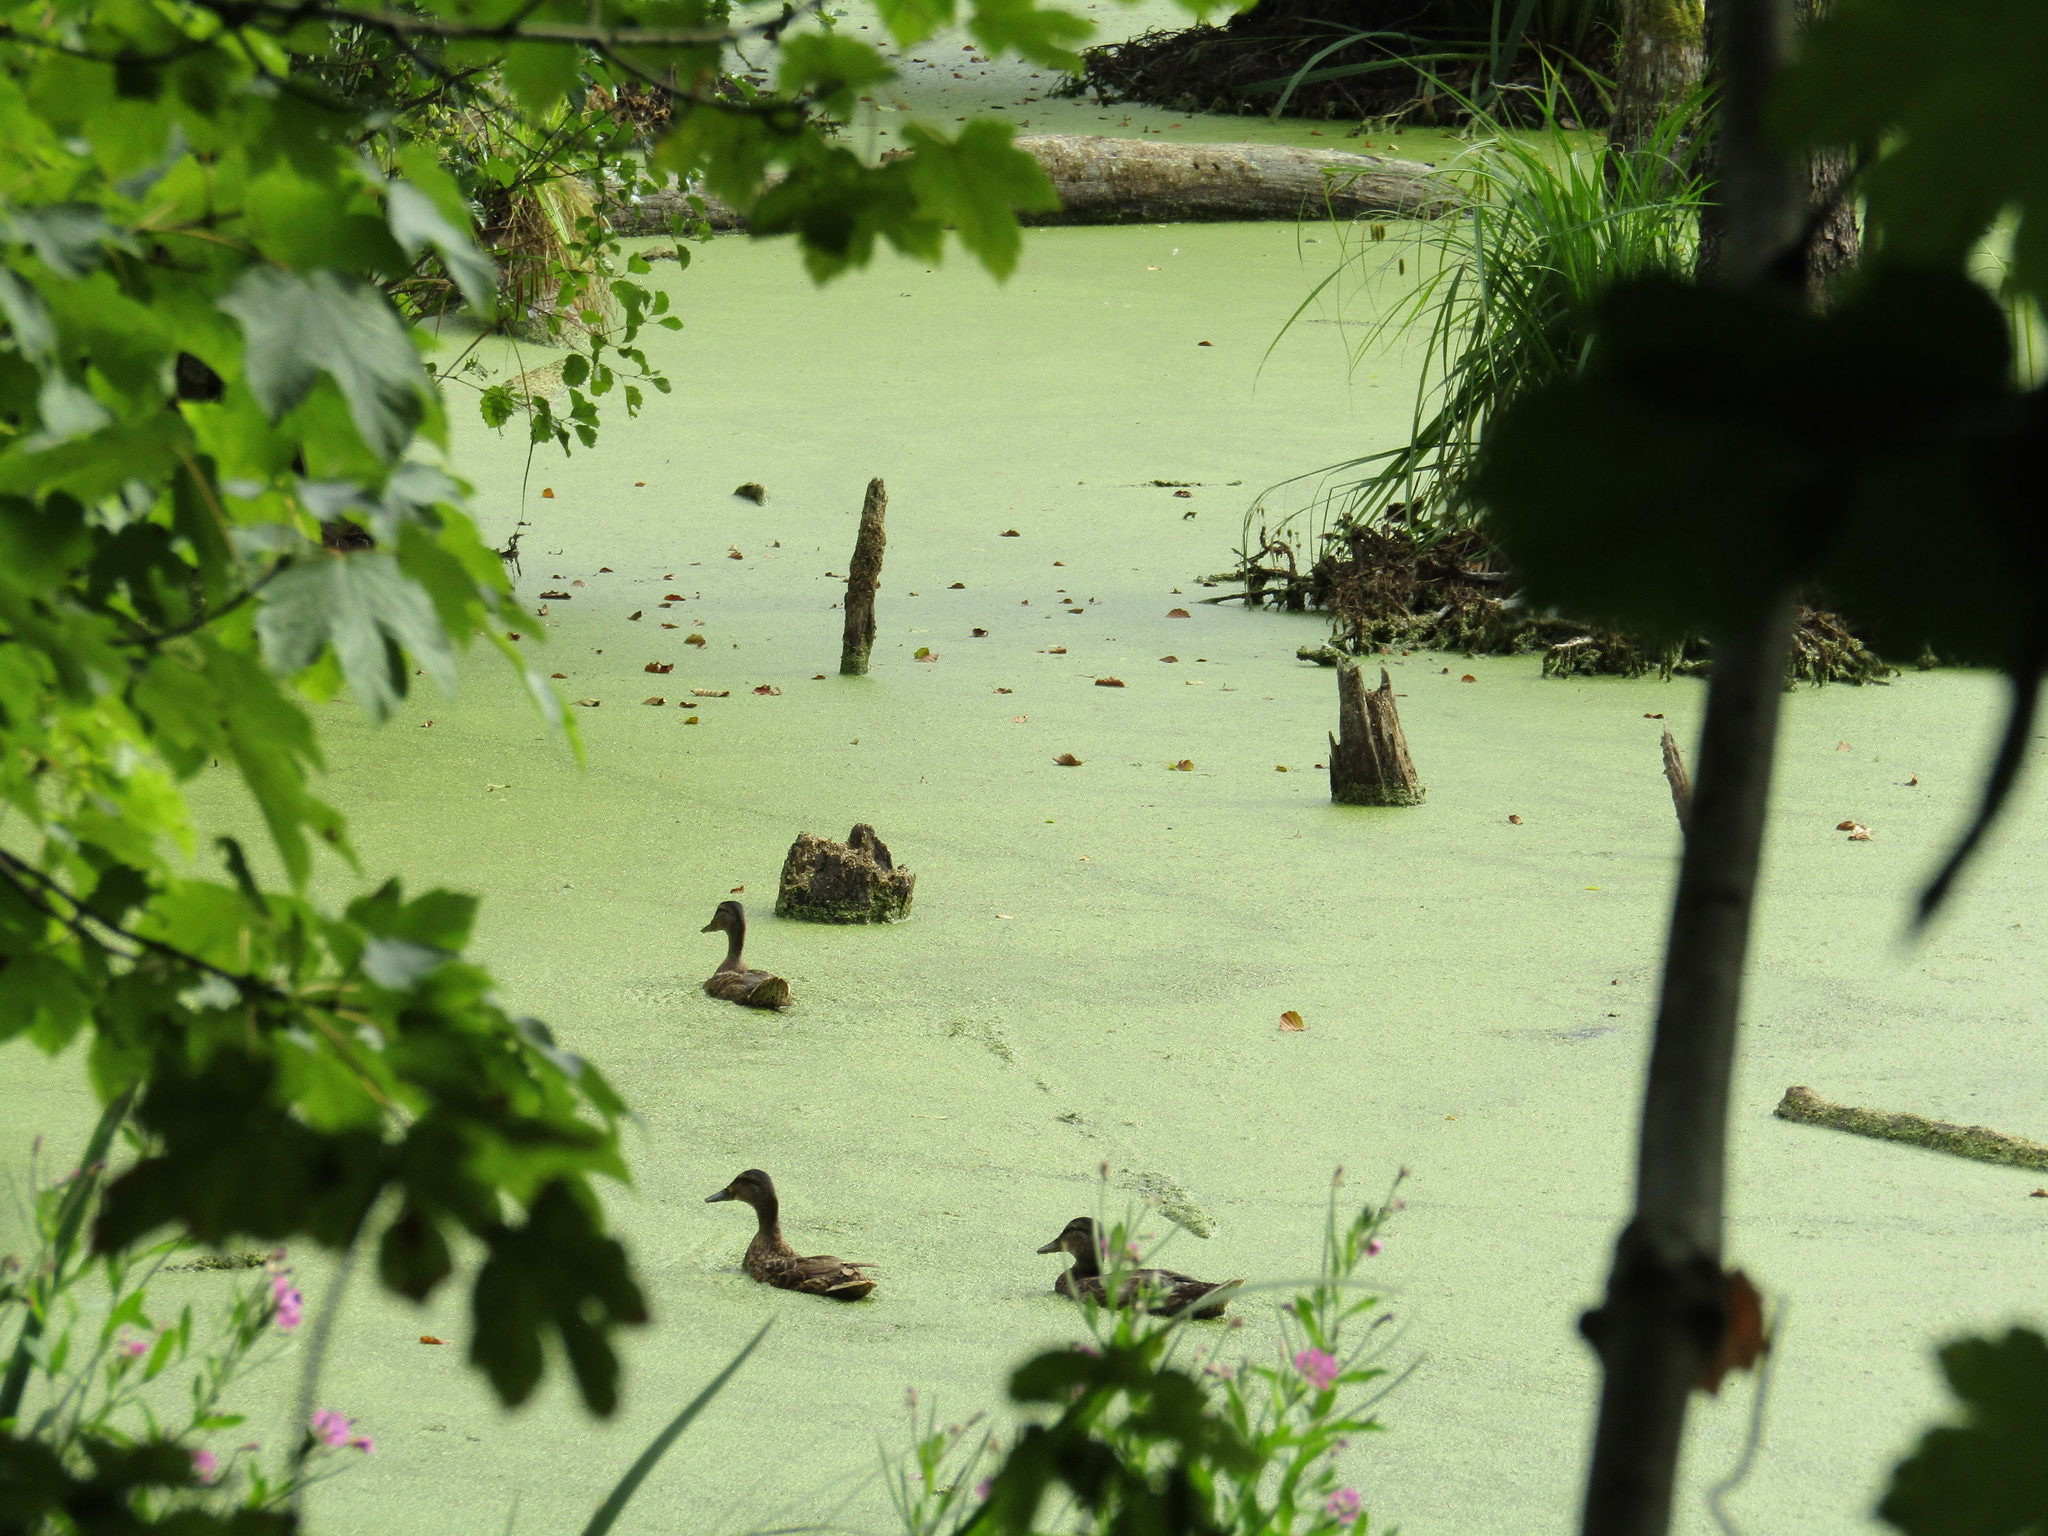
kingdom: Animalia
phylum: Chordata
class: Aves
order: Anseriformes
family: Anatidae
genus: Anas
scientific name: Anas platyrhynchos
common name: Mallard
